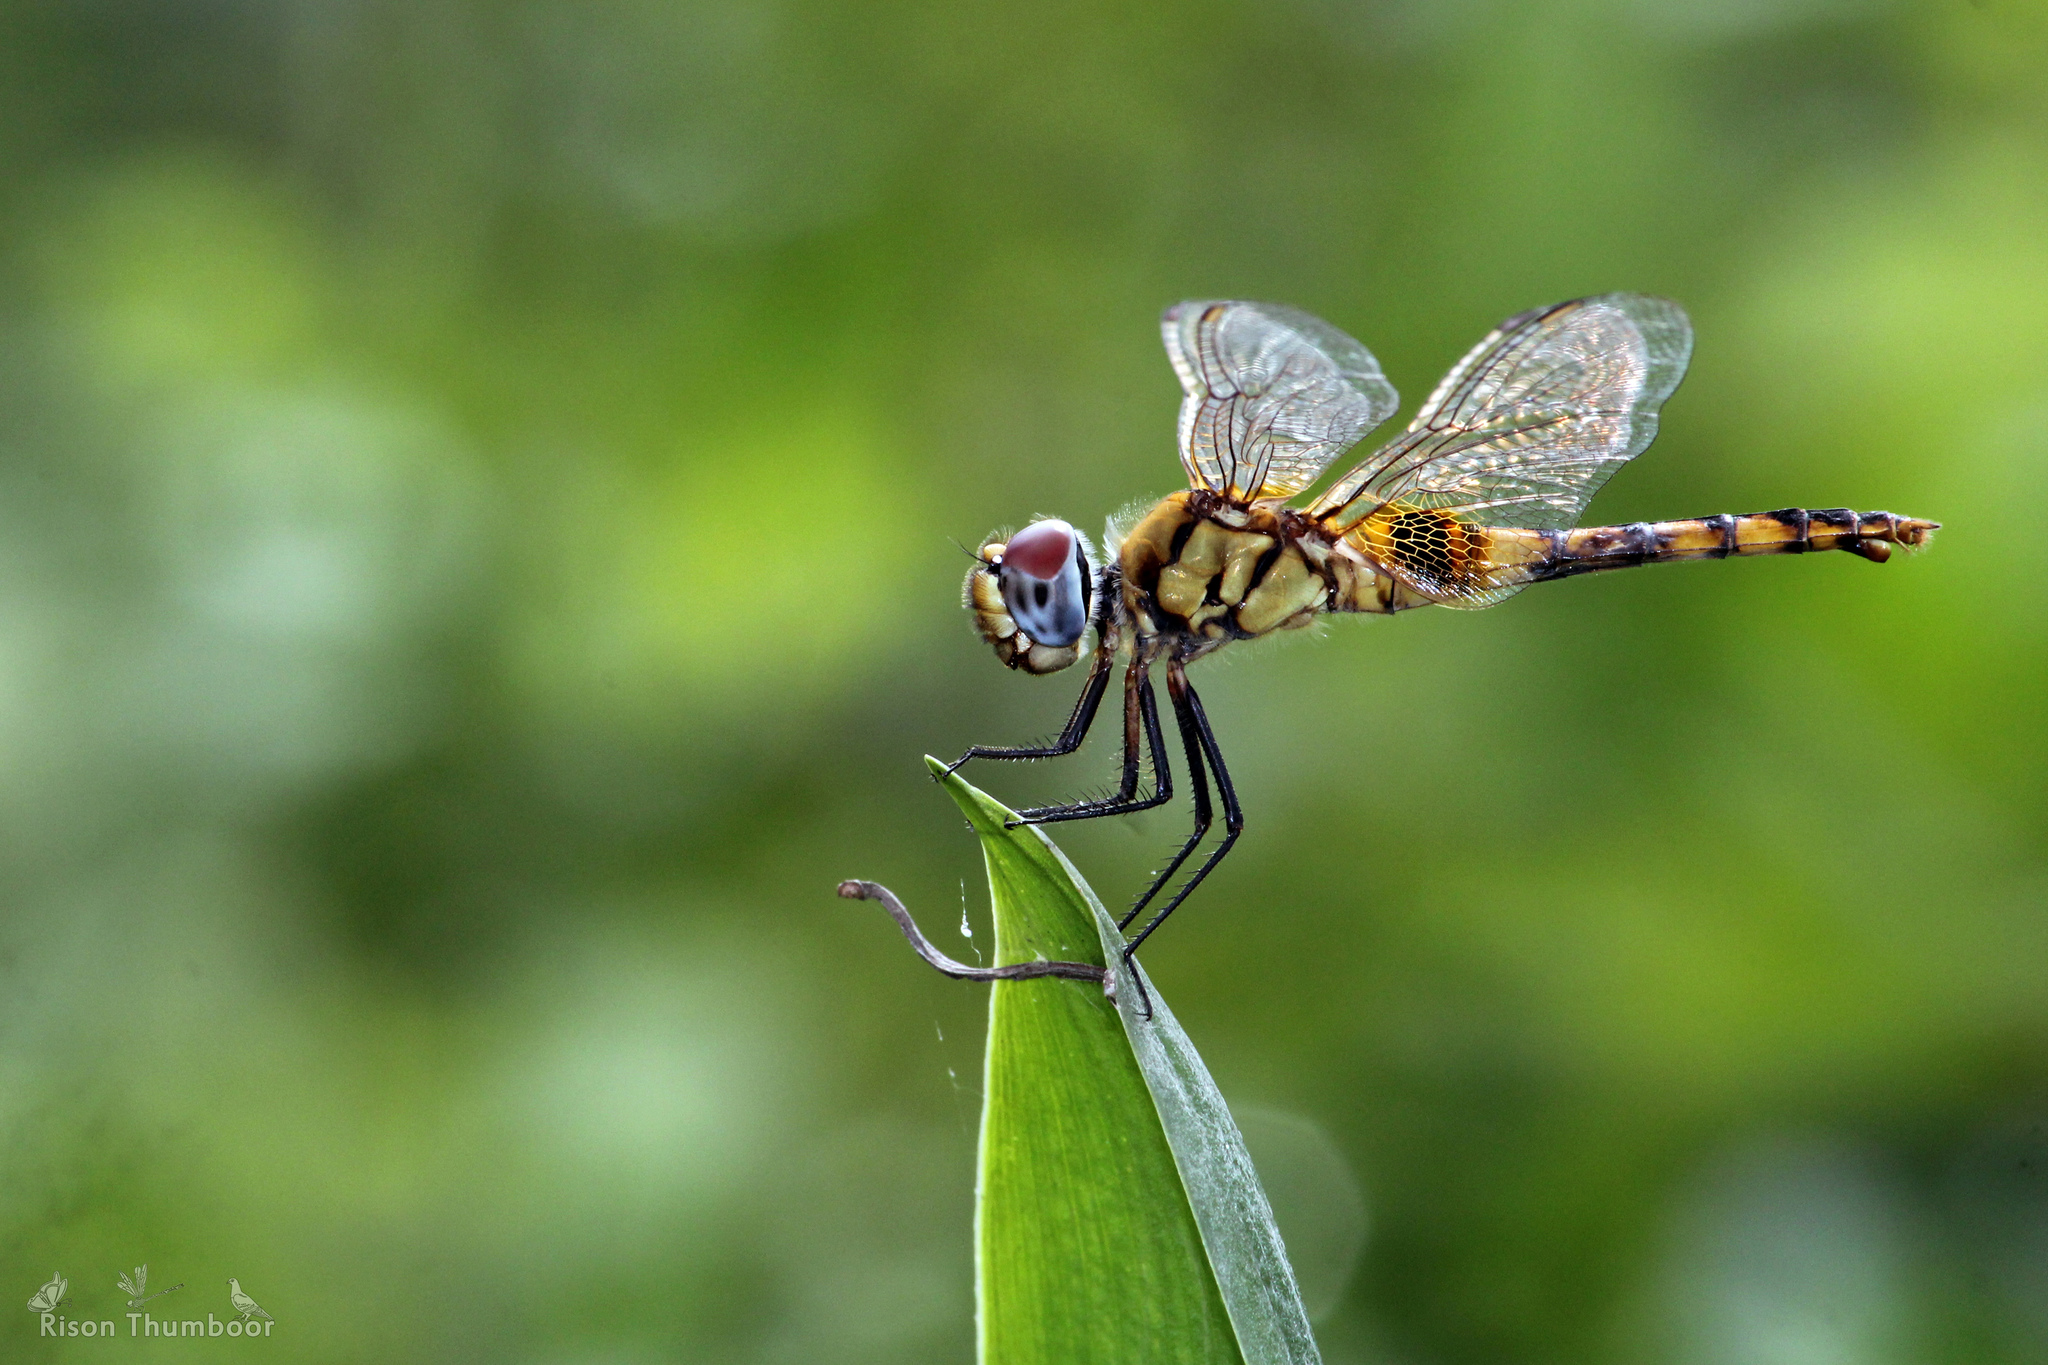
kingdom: Animalia
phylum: Arthropoda
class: Insecta
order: Odonata
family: Libellulidae
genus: Urothemis
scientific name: Urothemis signata
